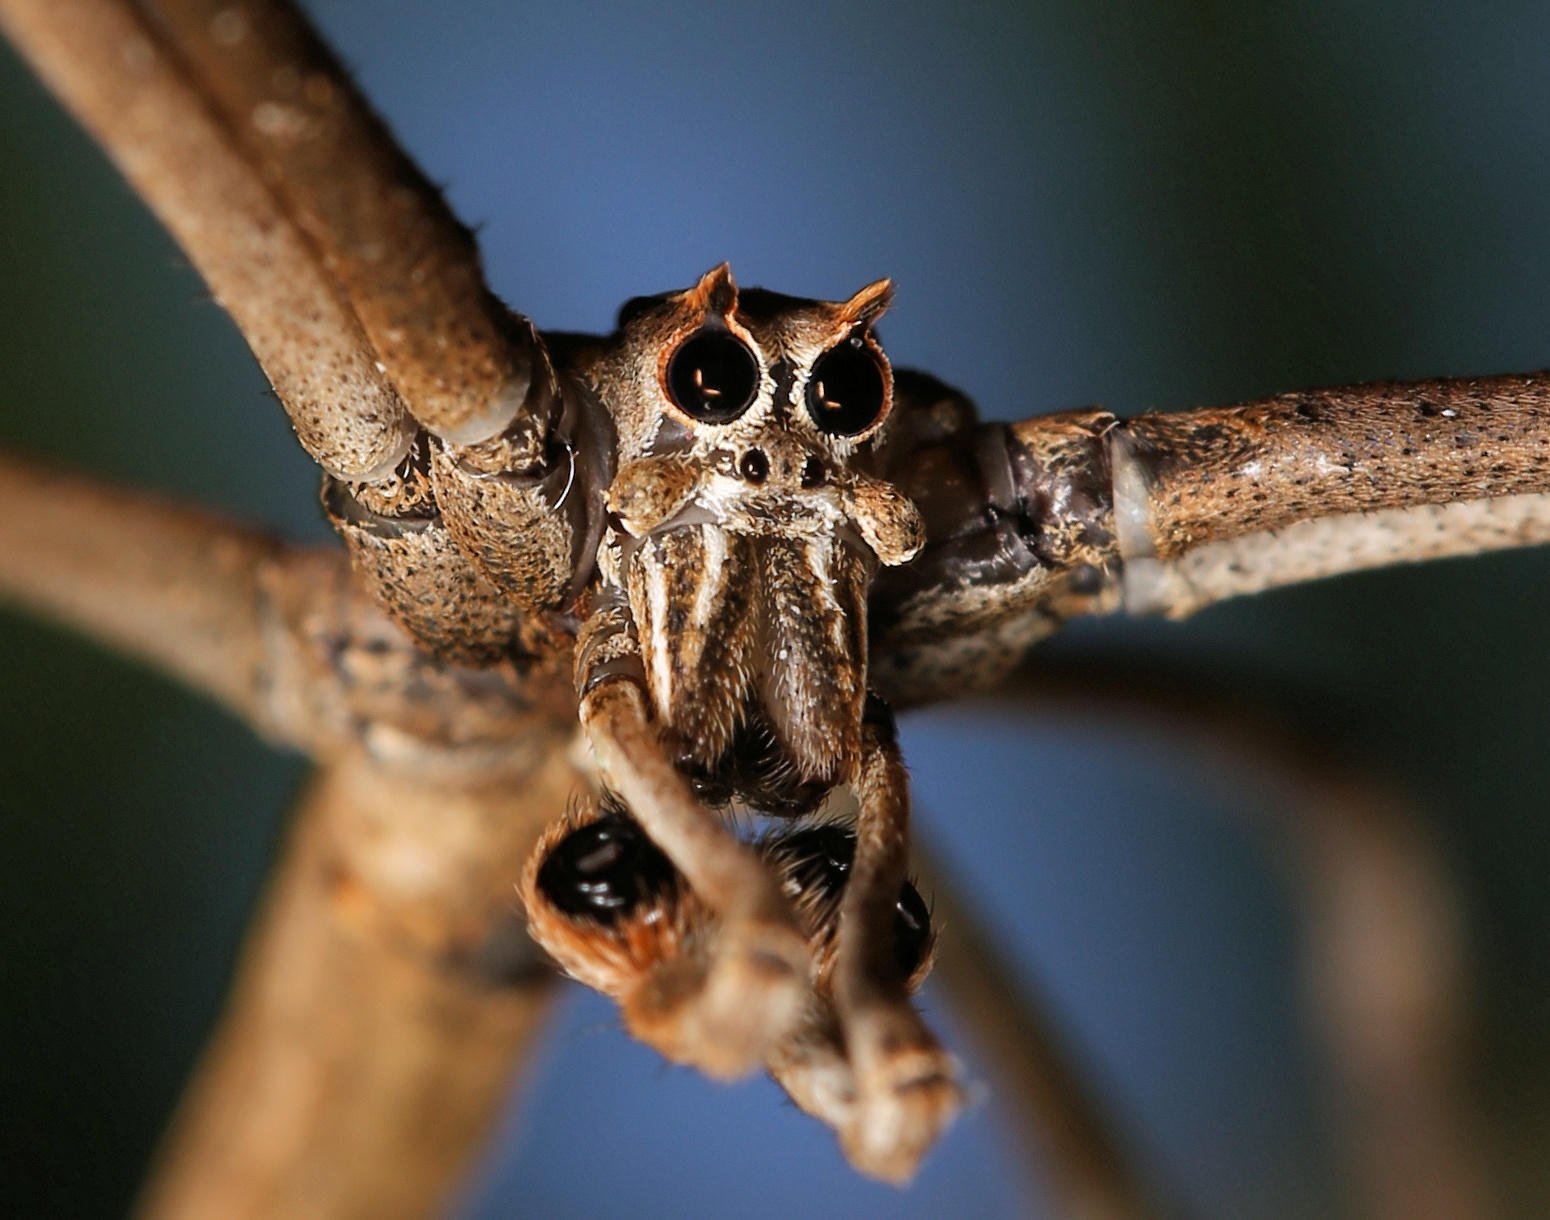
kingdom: Animalia
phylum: Arthropoda
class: Arachnida
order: Araneae
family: Deinopidae
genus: Deinopis
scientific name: Deinopis cylindrica
